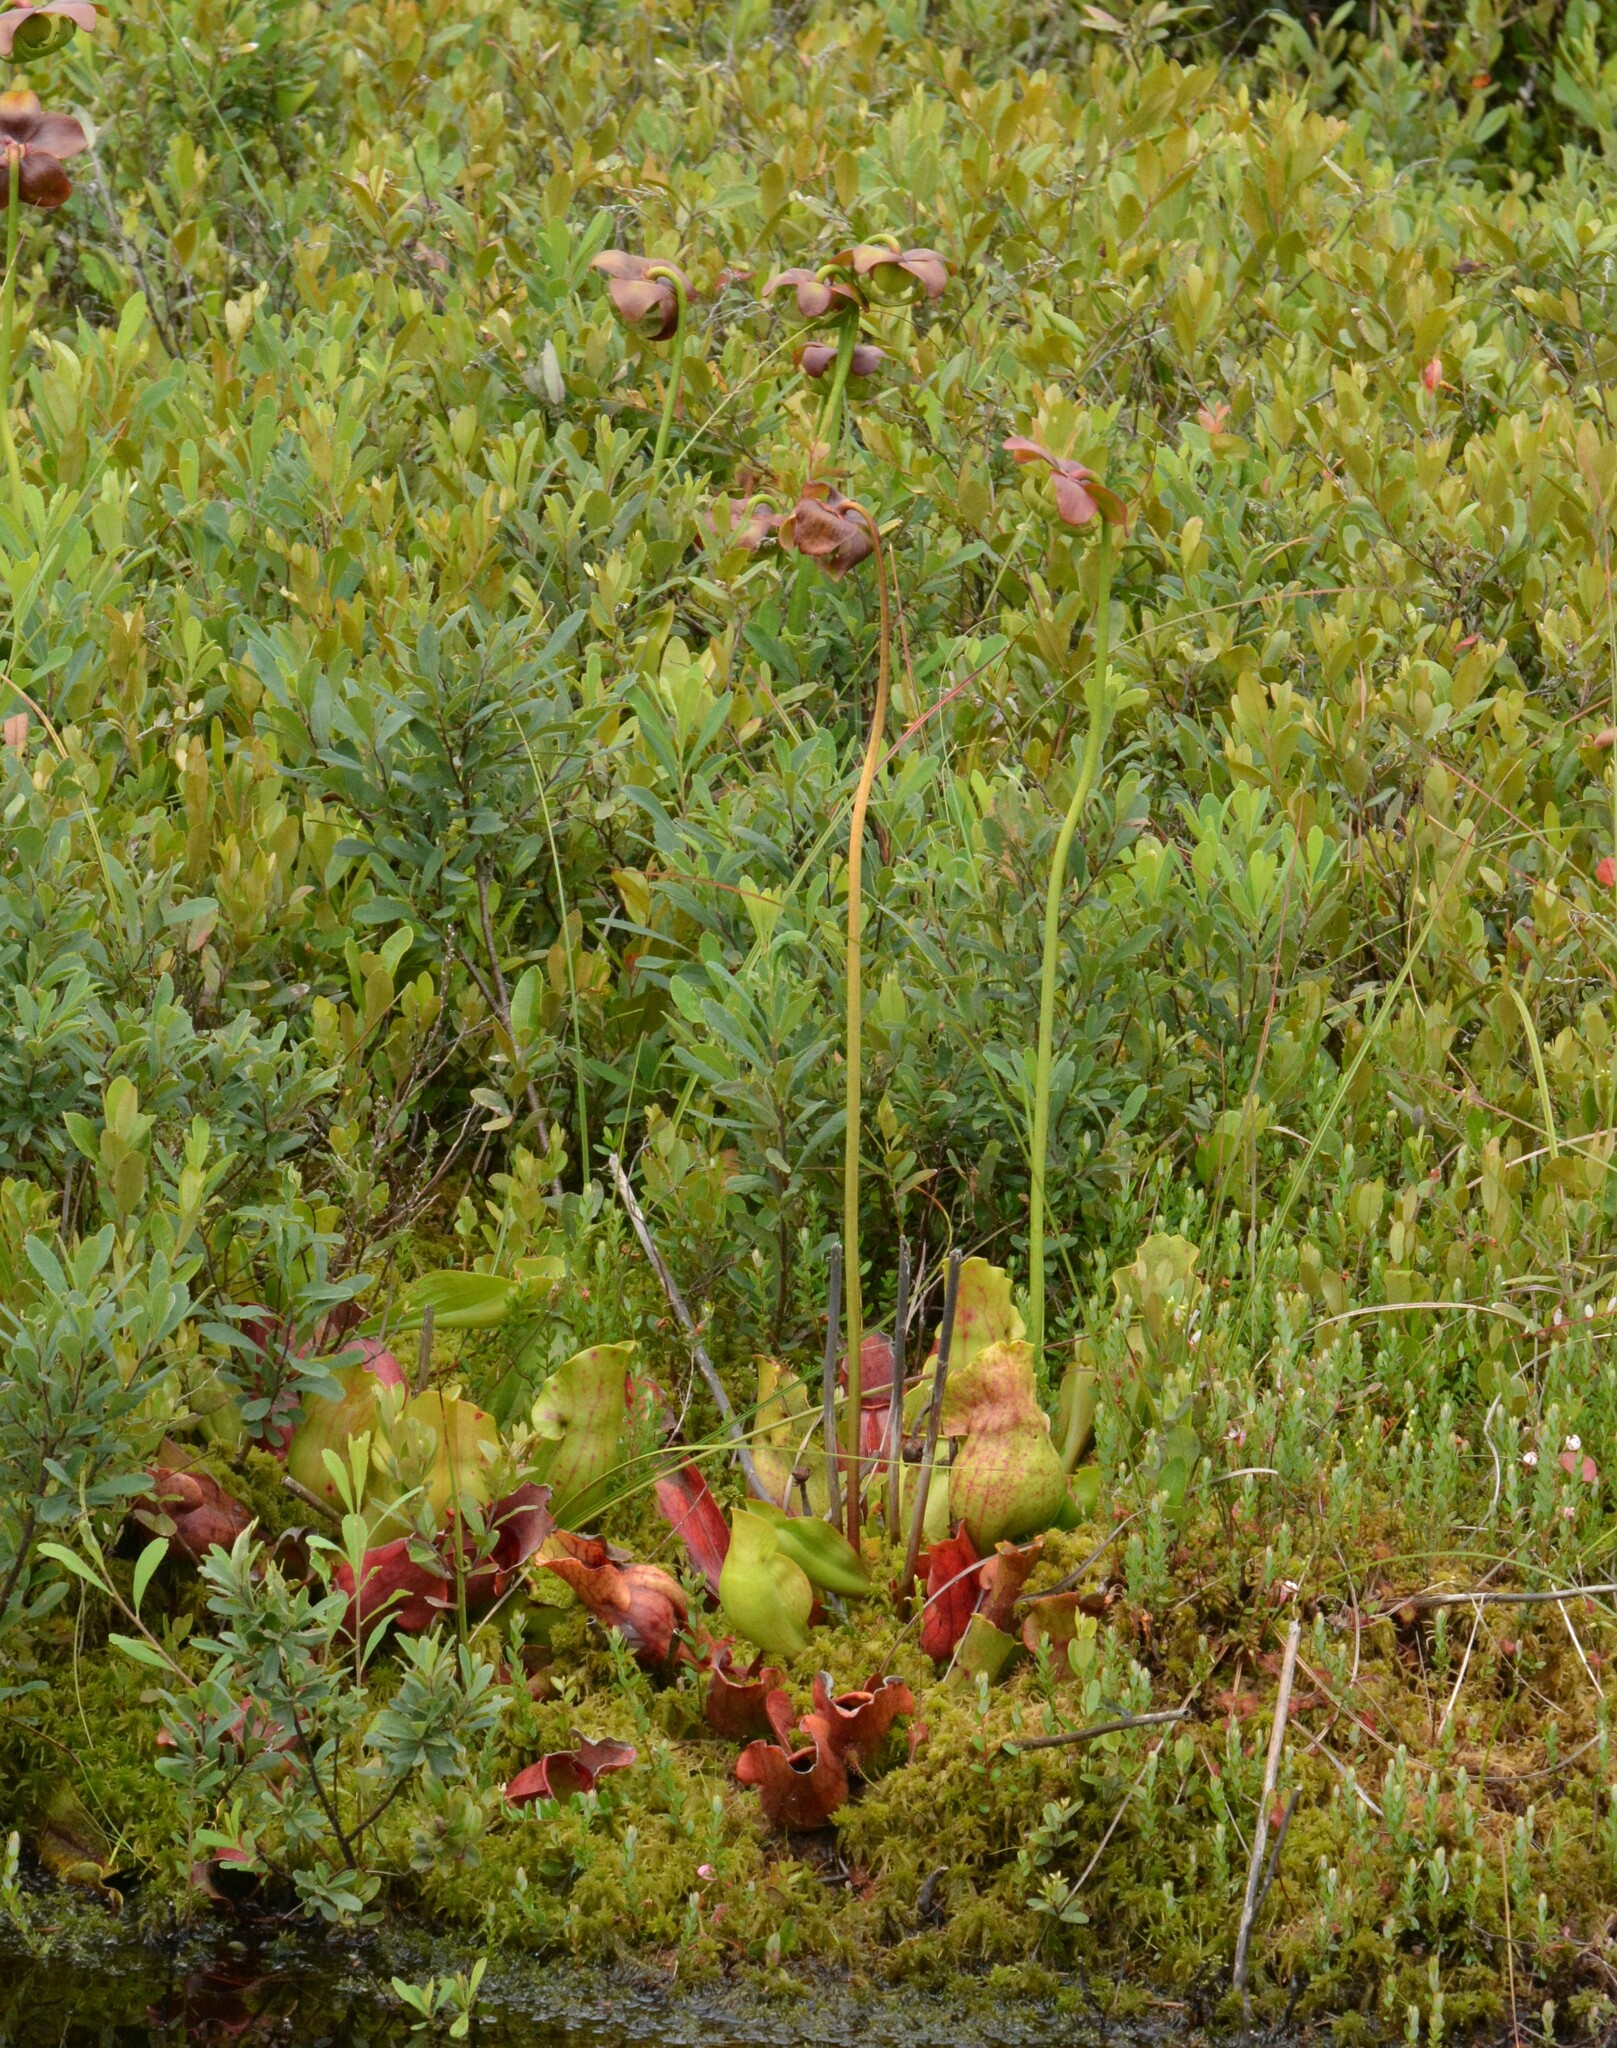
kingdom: Plantae
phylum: Tracheophyta
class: Magnoliopsida
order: Ericales
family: Sarraceniaceae
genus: Sarracenia
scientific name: Sarracenia purpurea
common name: Pitcherplant
